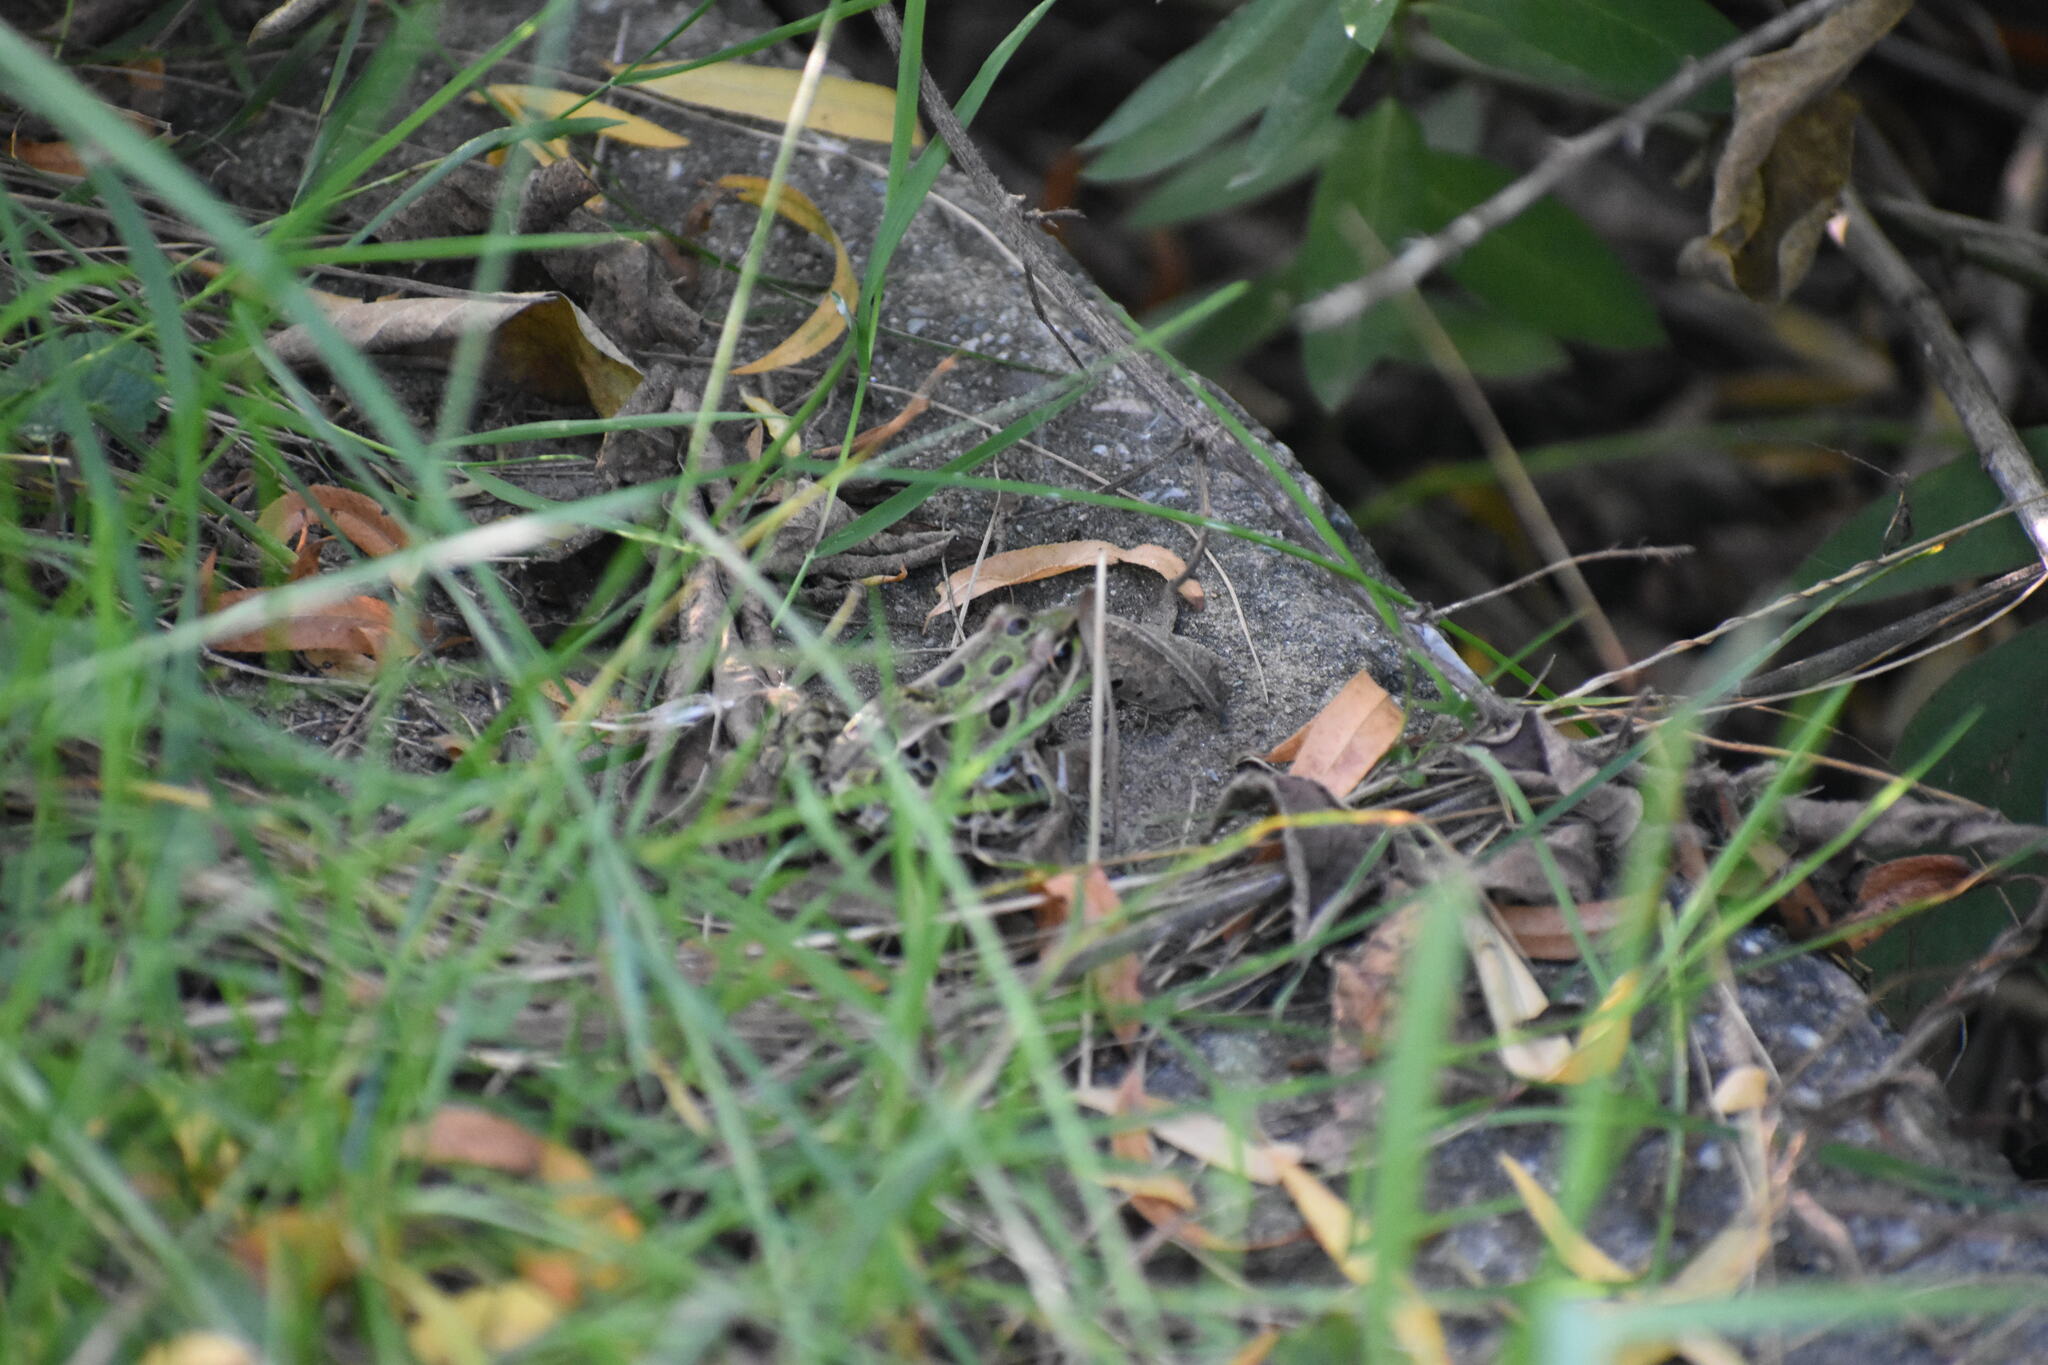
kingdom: Animalia
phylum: Chordata
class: Amphibia
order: Anura
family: Ranidae
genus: Lithobates
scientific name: Lithobates pipiens
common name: Northern leopard frog
